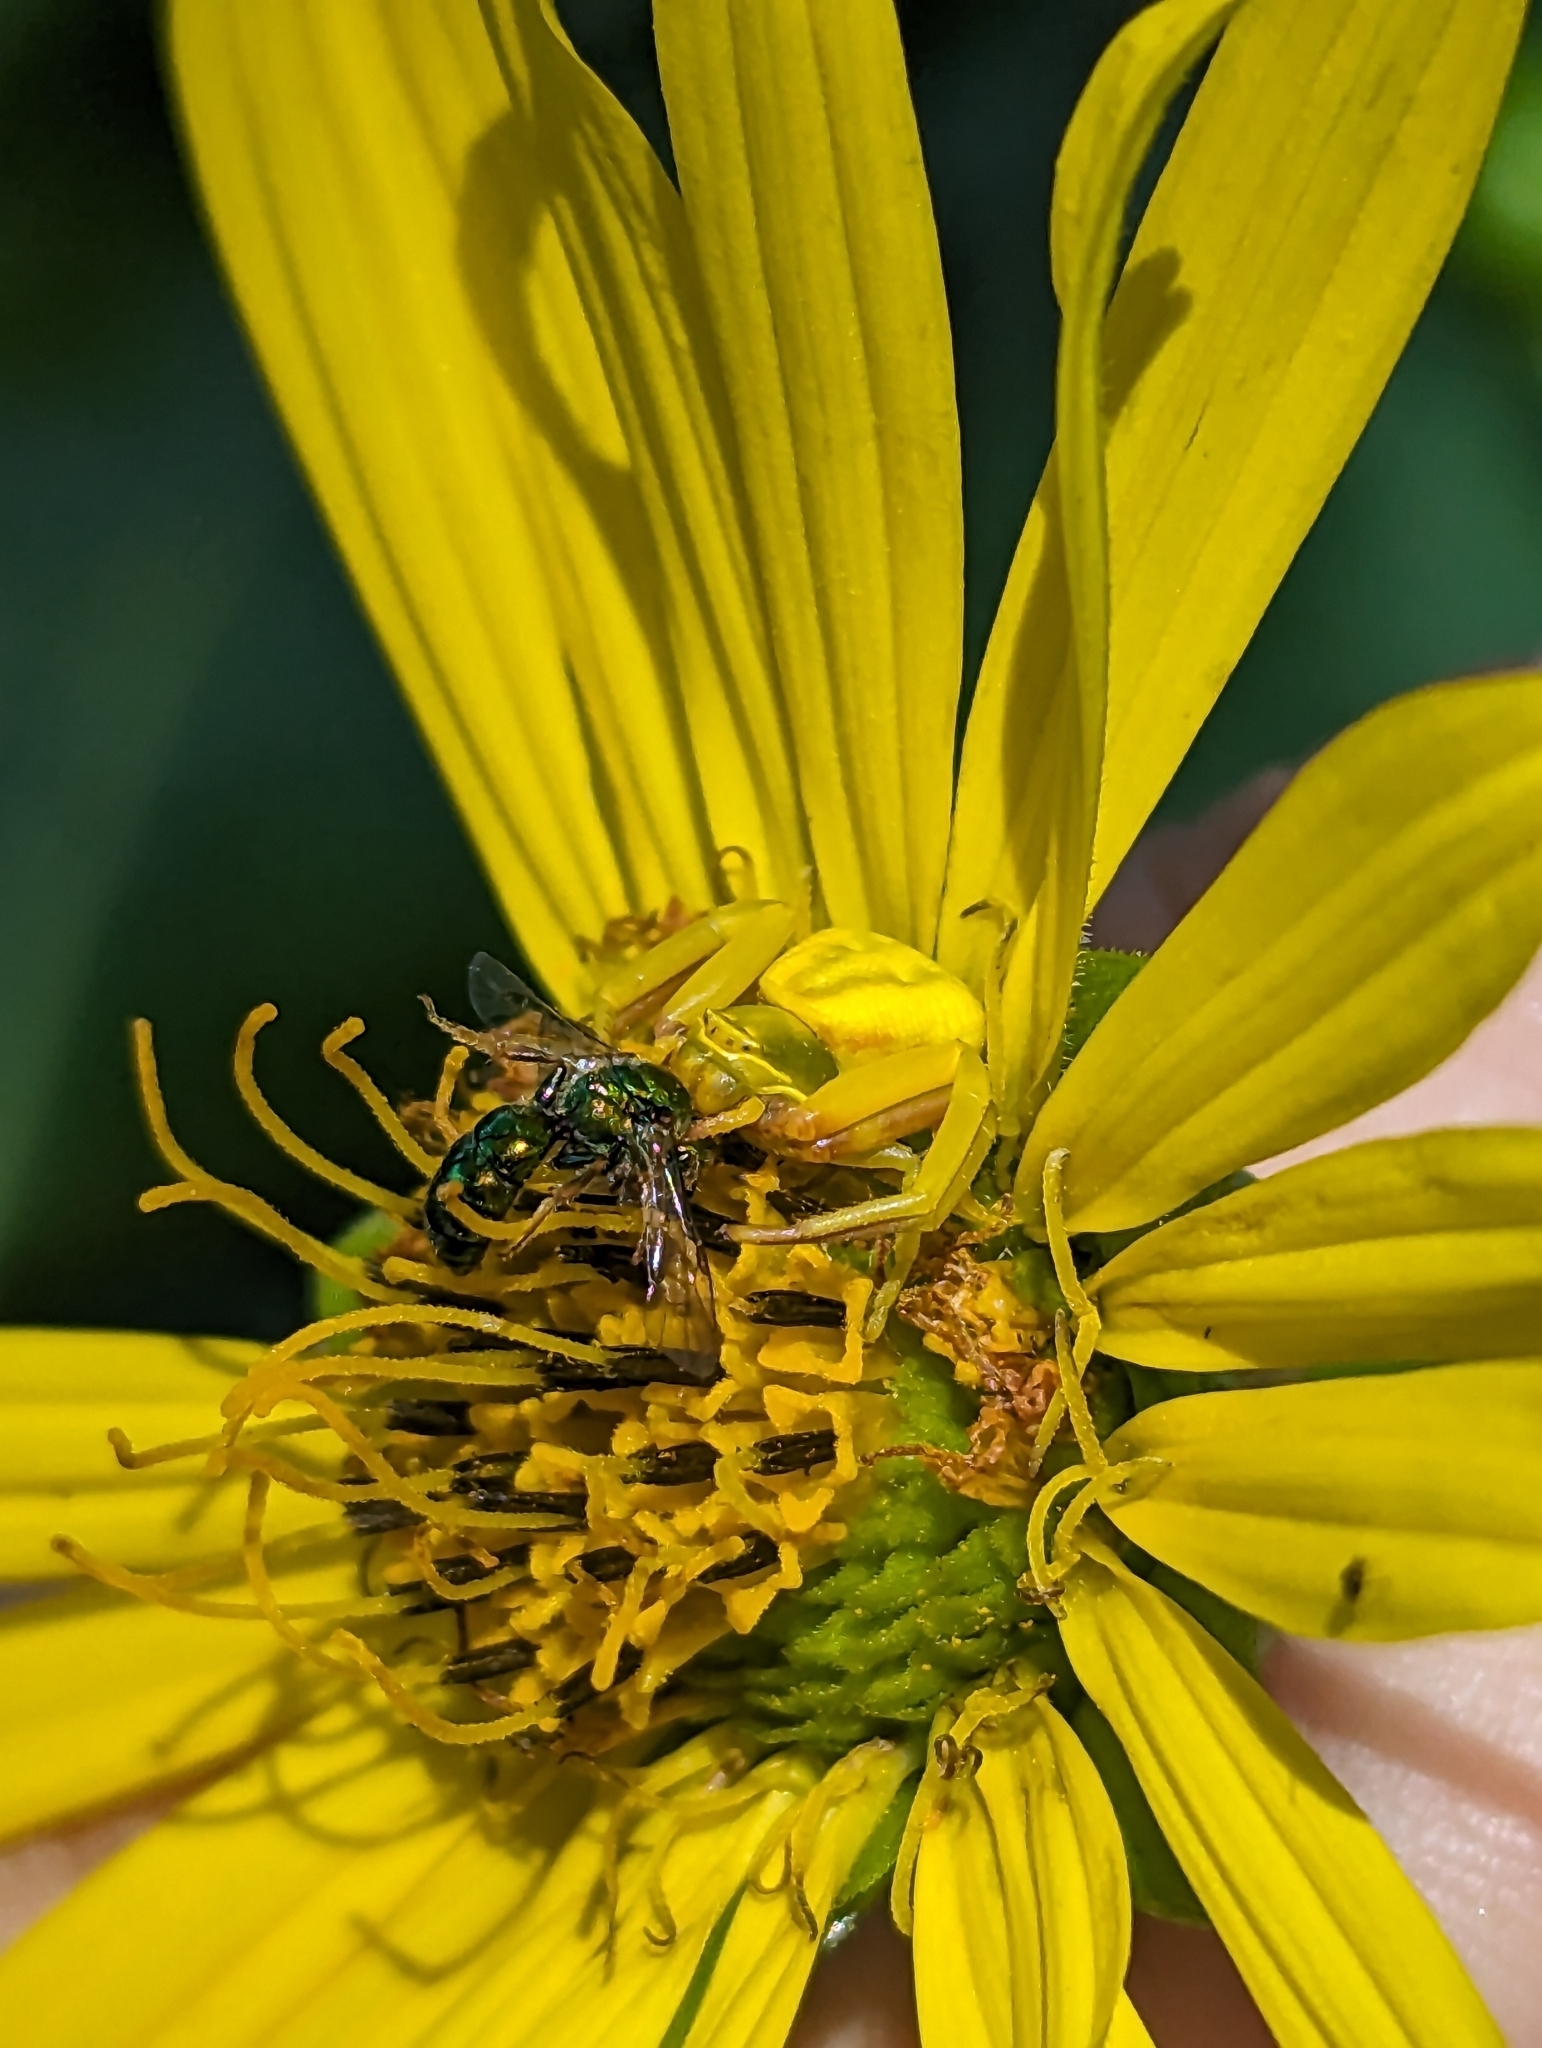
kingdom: Animalia
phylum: Arthropoda
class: Arachnida
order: Araneae
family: Thomisidae
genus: Misumenoides
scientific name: Misumenoides formosipes
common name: White-banded crab spider
